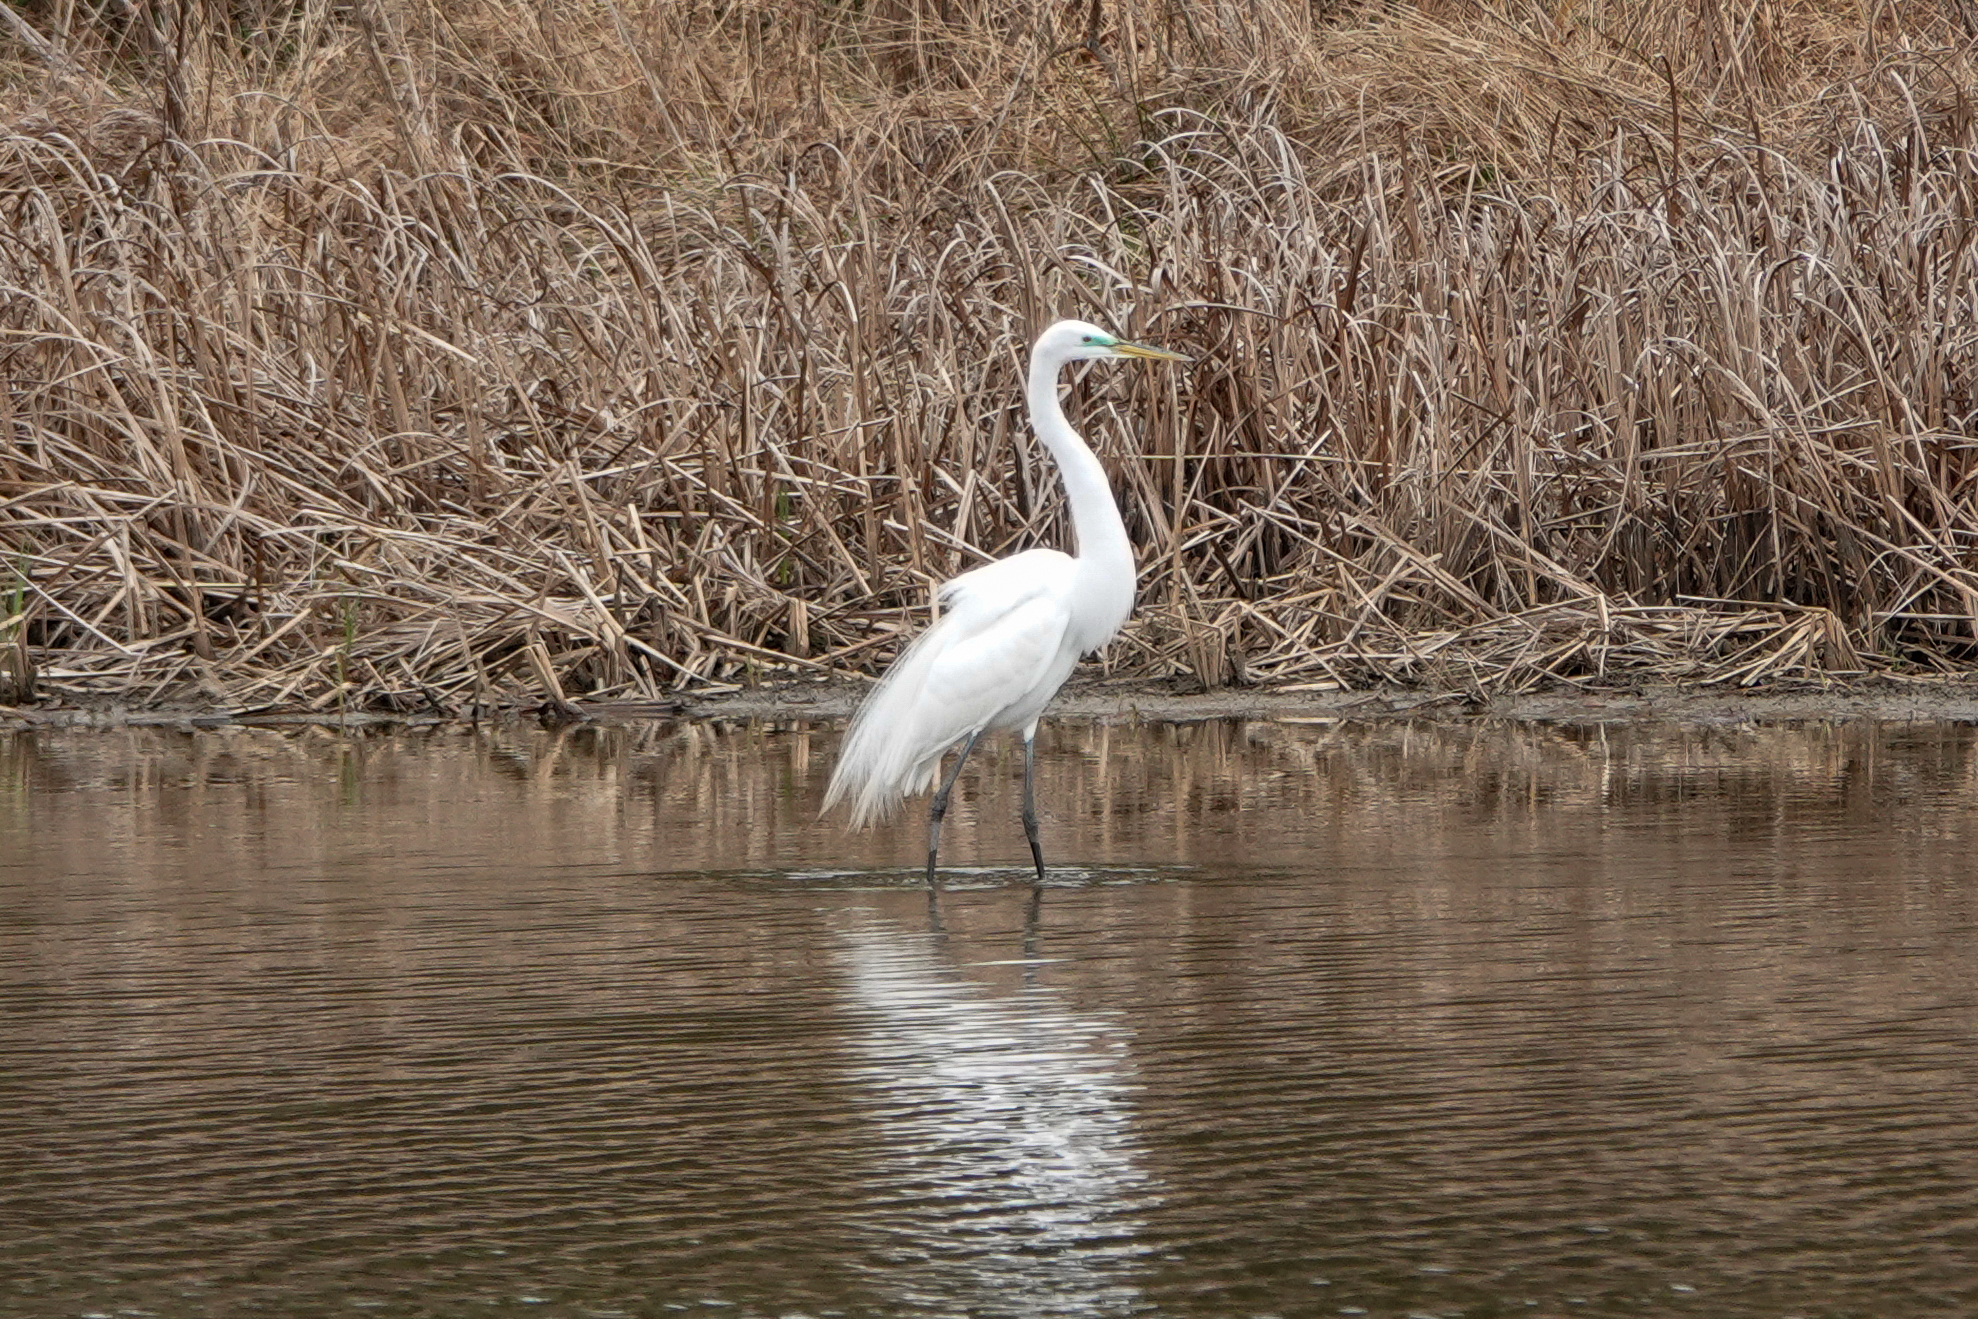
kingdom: Animalia
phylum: Chordata
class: Aves
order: Pelecaniformes
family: Ardeidae
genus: Ardea
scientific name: Ardea alba
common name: Great egret
